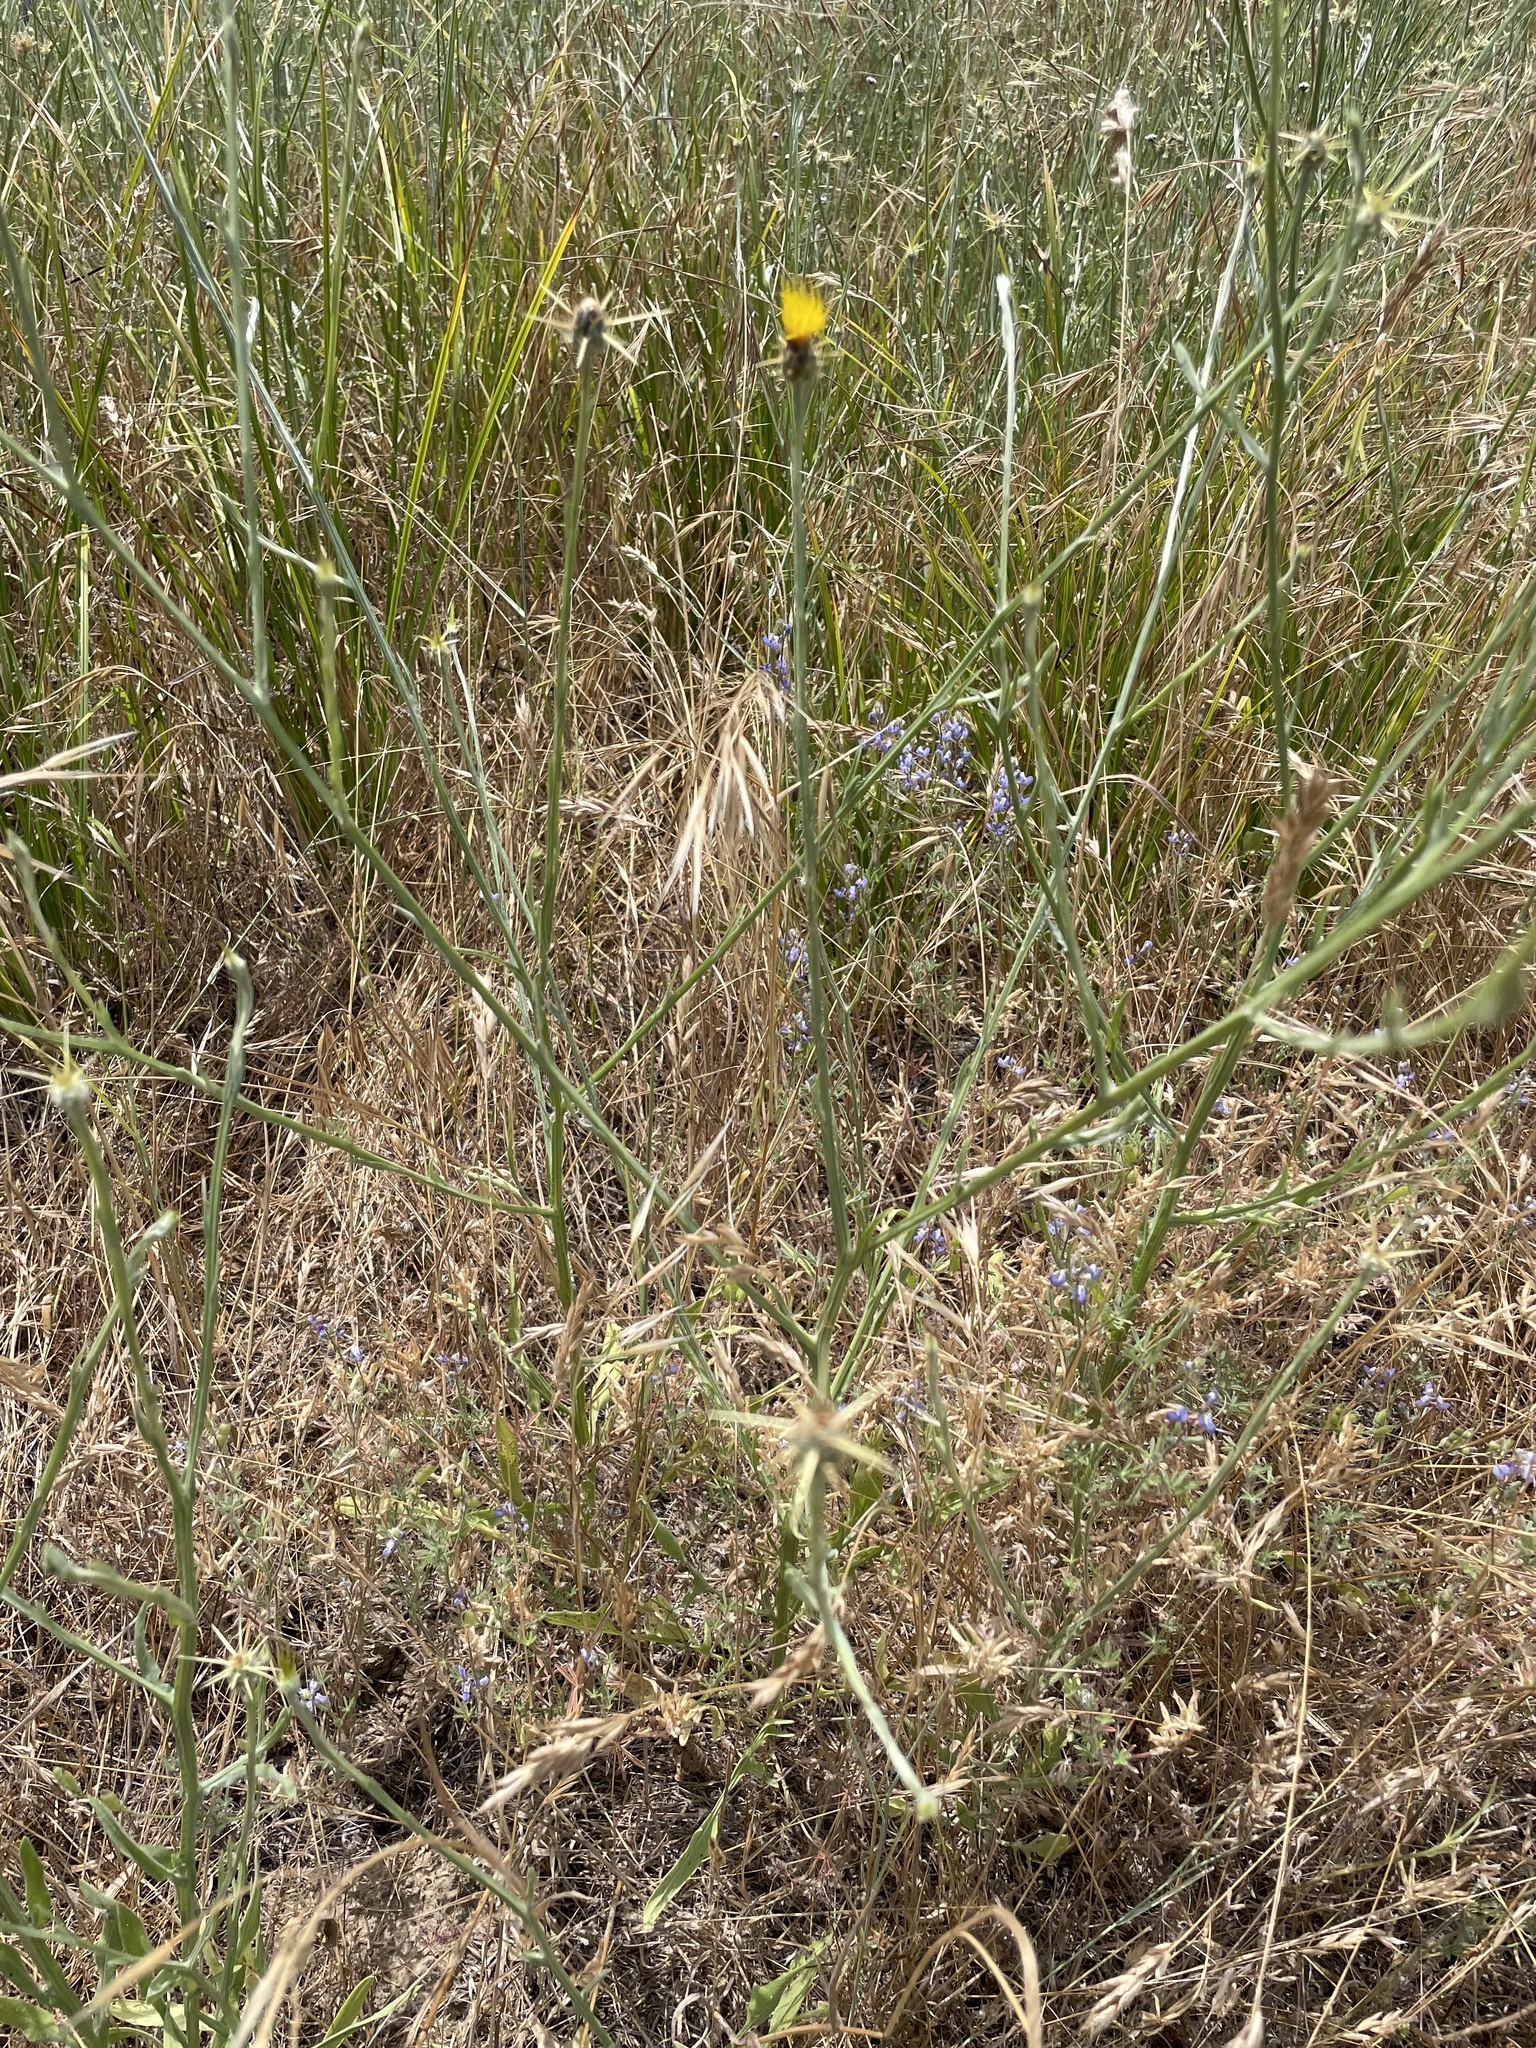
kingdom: Plantae
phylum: Tracheophyta
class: Magnoliopsida
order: Asterales
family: Asteraceae
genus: Centaurea
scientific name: Centaurea solstitialis
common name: Yellow star-thistle
